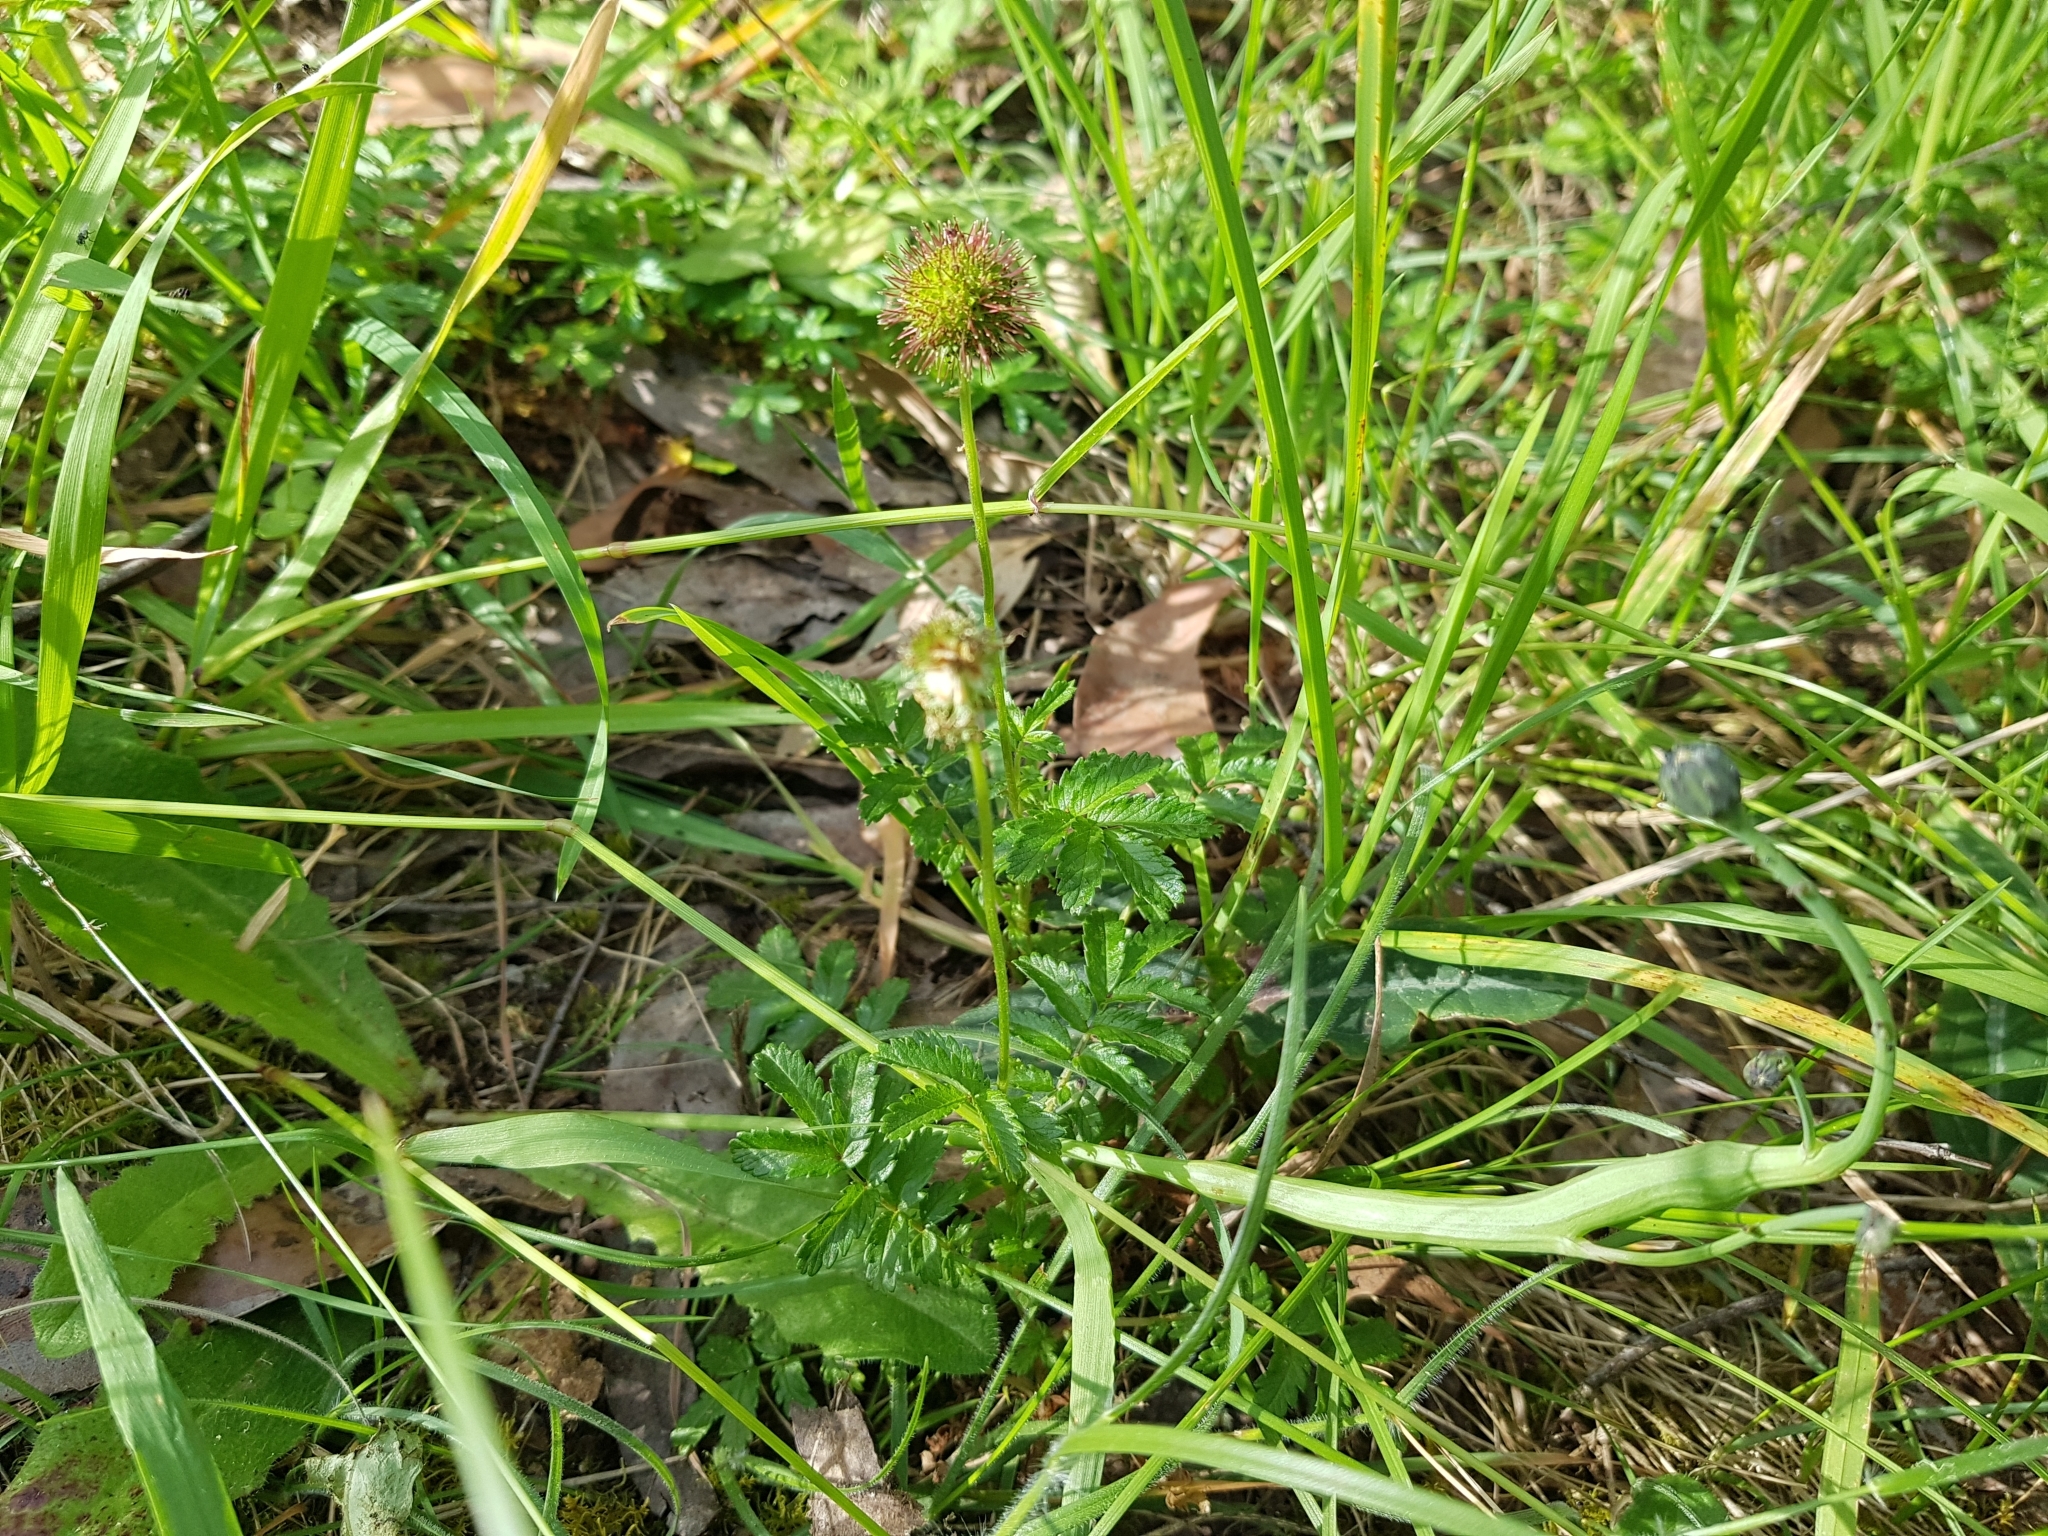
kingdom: Plantae
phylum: Tracheophyta
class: Magnoliopsida
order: Rosales
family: Rosaceae
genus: Acaena
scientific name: Acaena novae-zelandiae
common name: Pirri-pirri-bur
